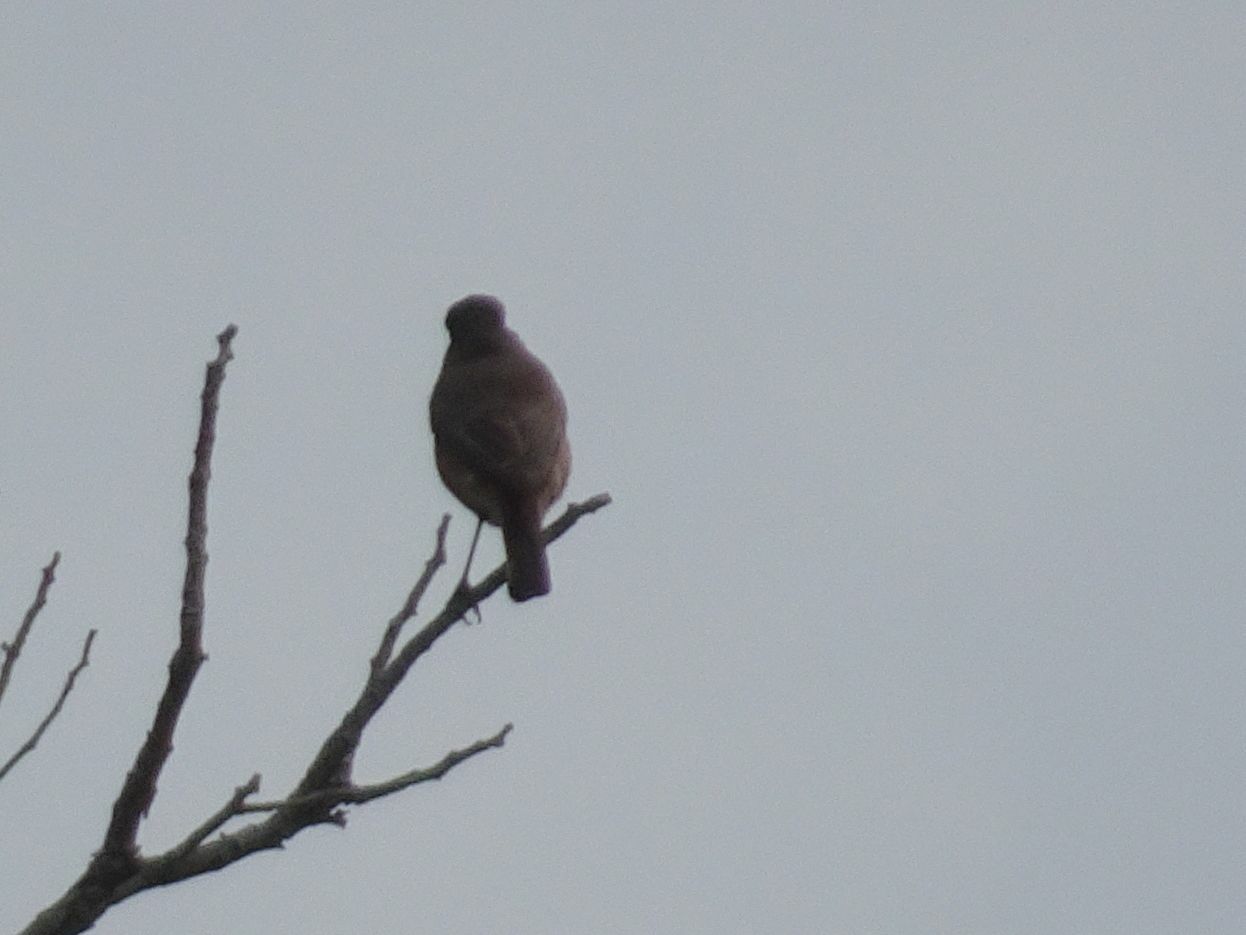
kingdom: Animalia
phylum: Chordata
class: Aves
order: Passeriformes
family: Muscicapidae
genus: Oenanthe
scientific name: Oenanthe familiaris
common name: Familiar chat
